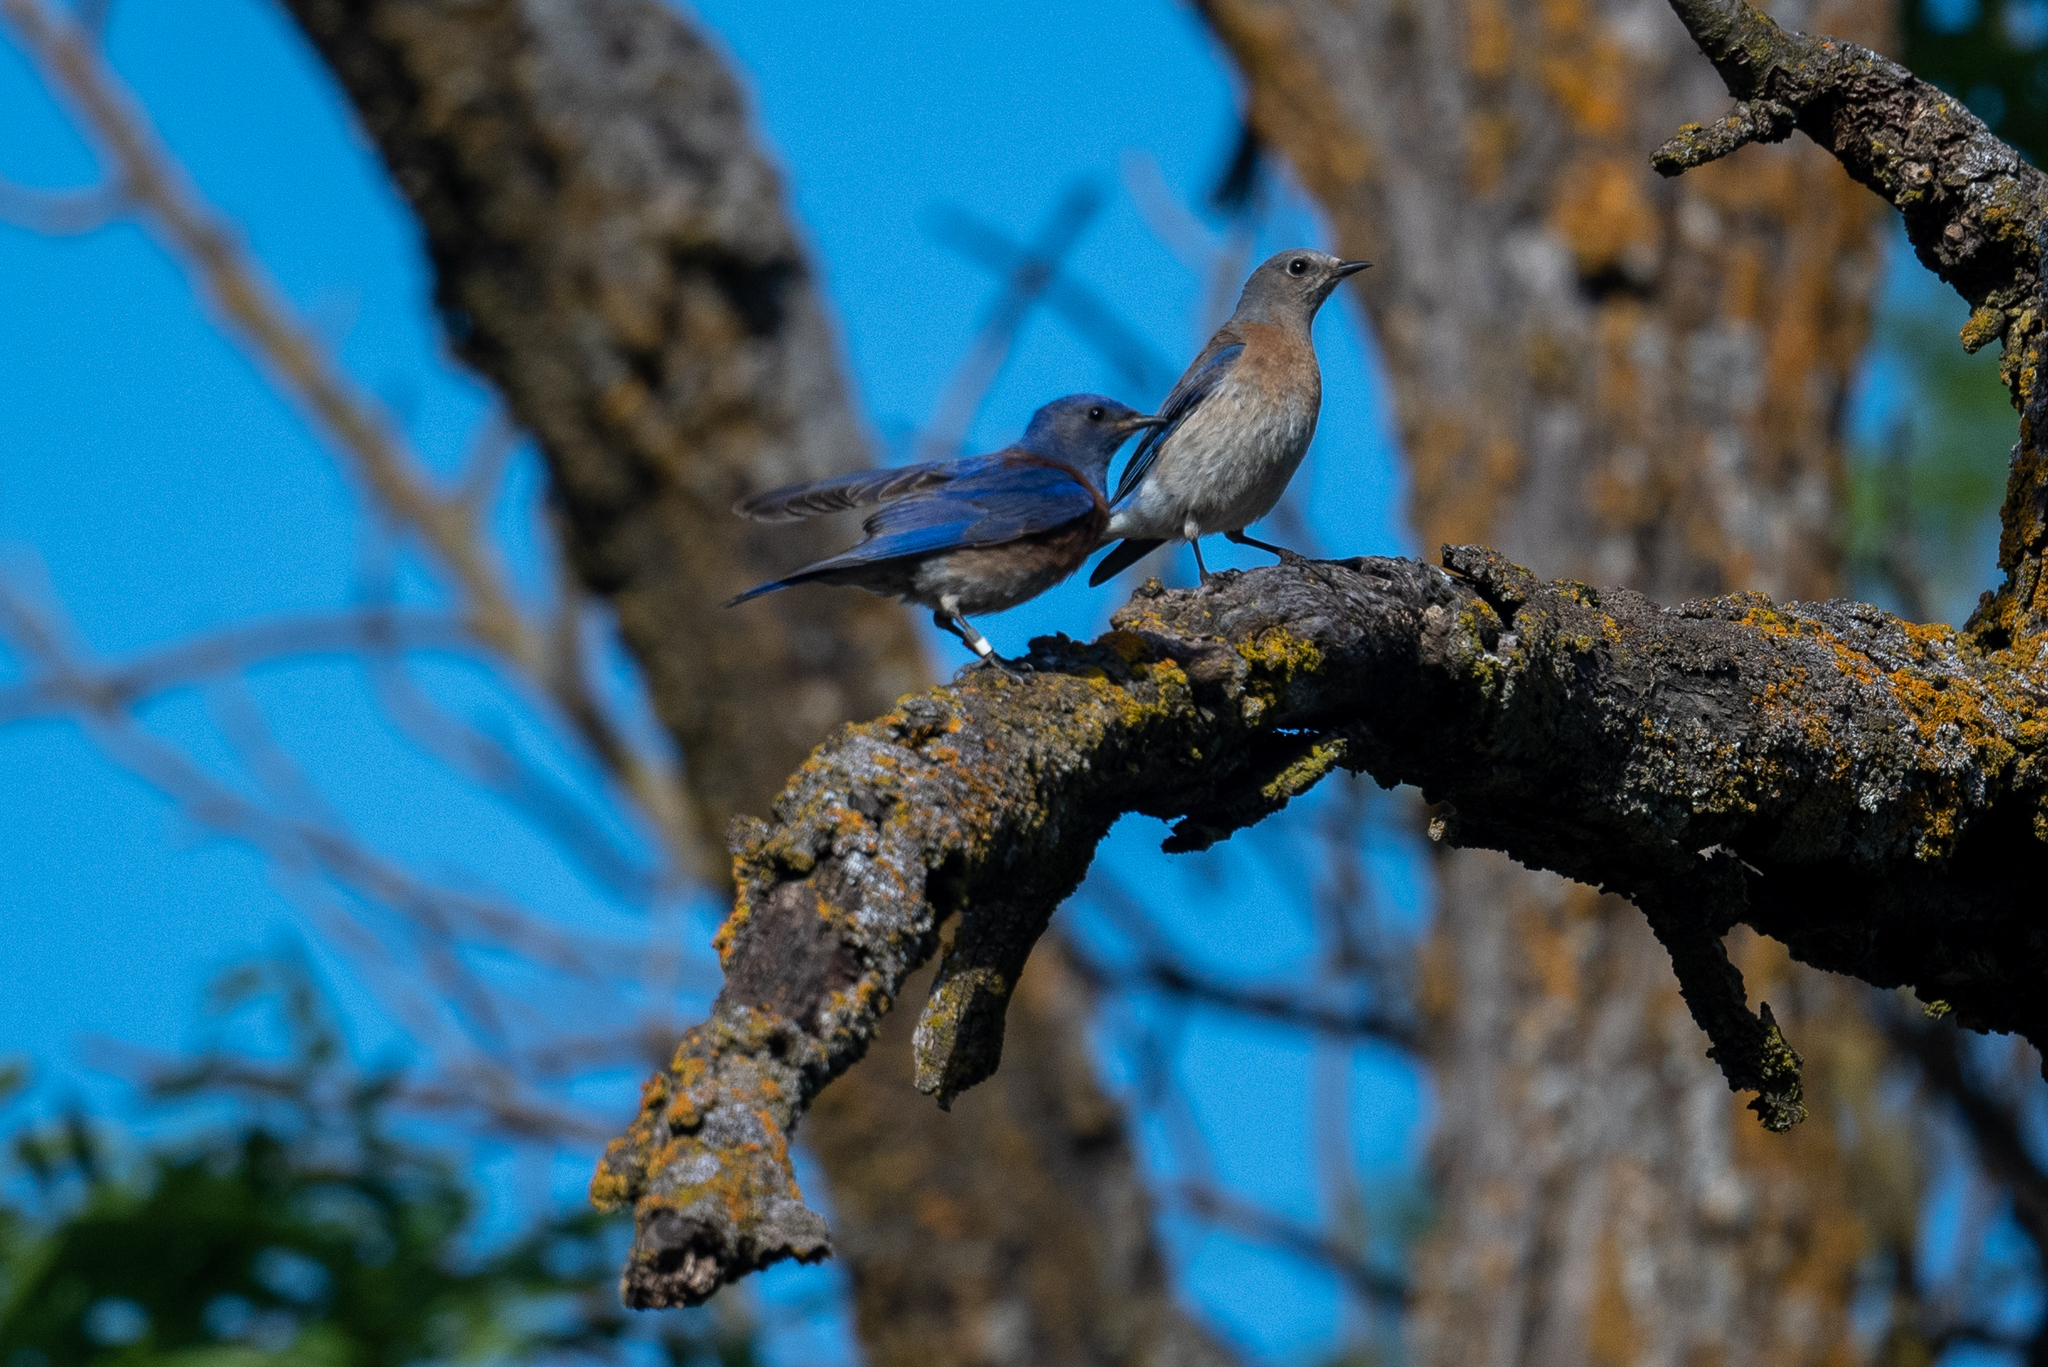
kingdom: Animalia
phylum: Chordata
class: Aves
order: Passeriformes
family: Turdidae
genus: Sialia
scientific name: Sialia mexicana
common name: Western bluebird
